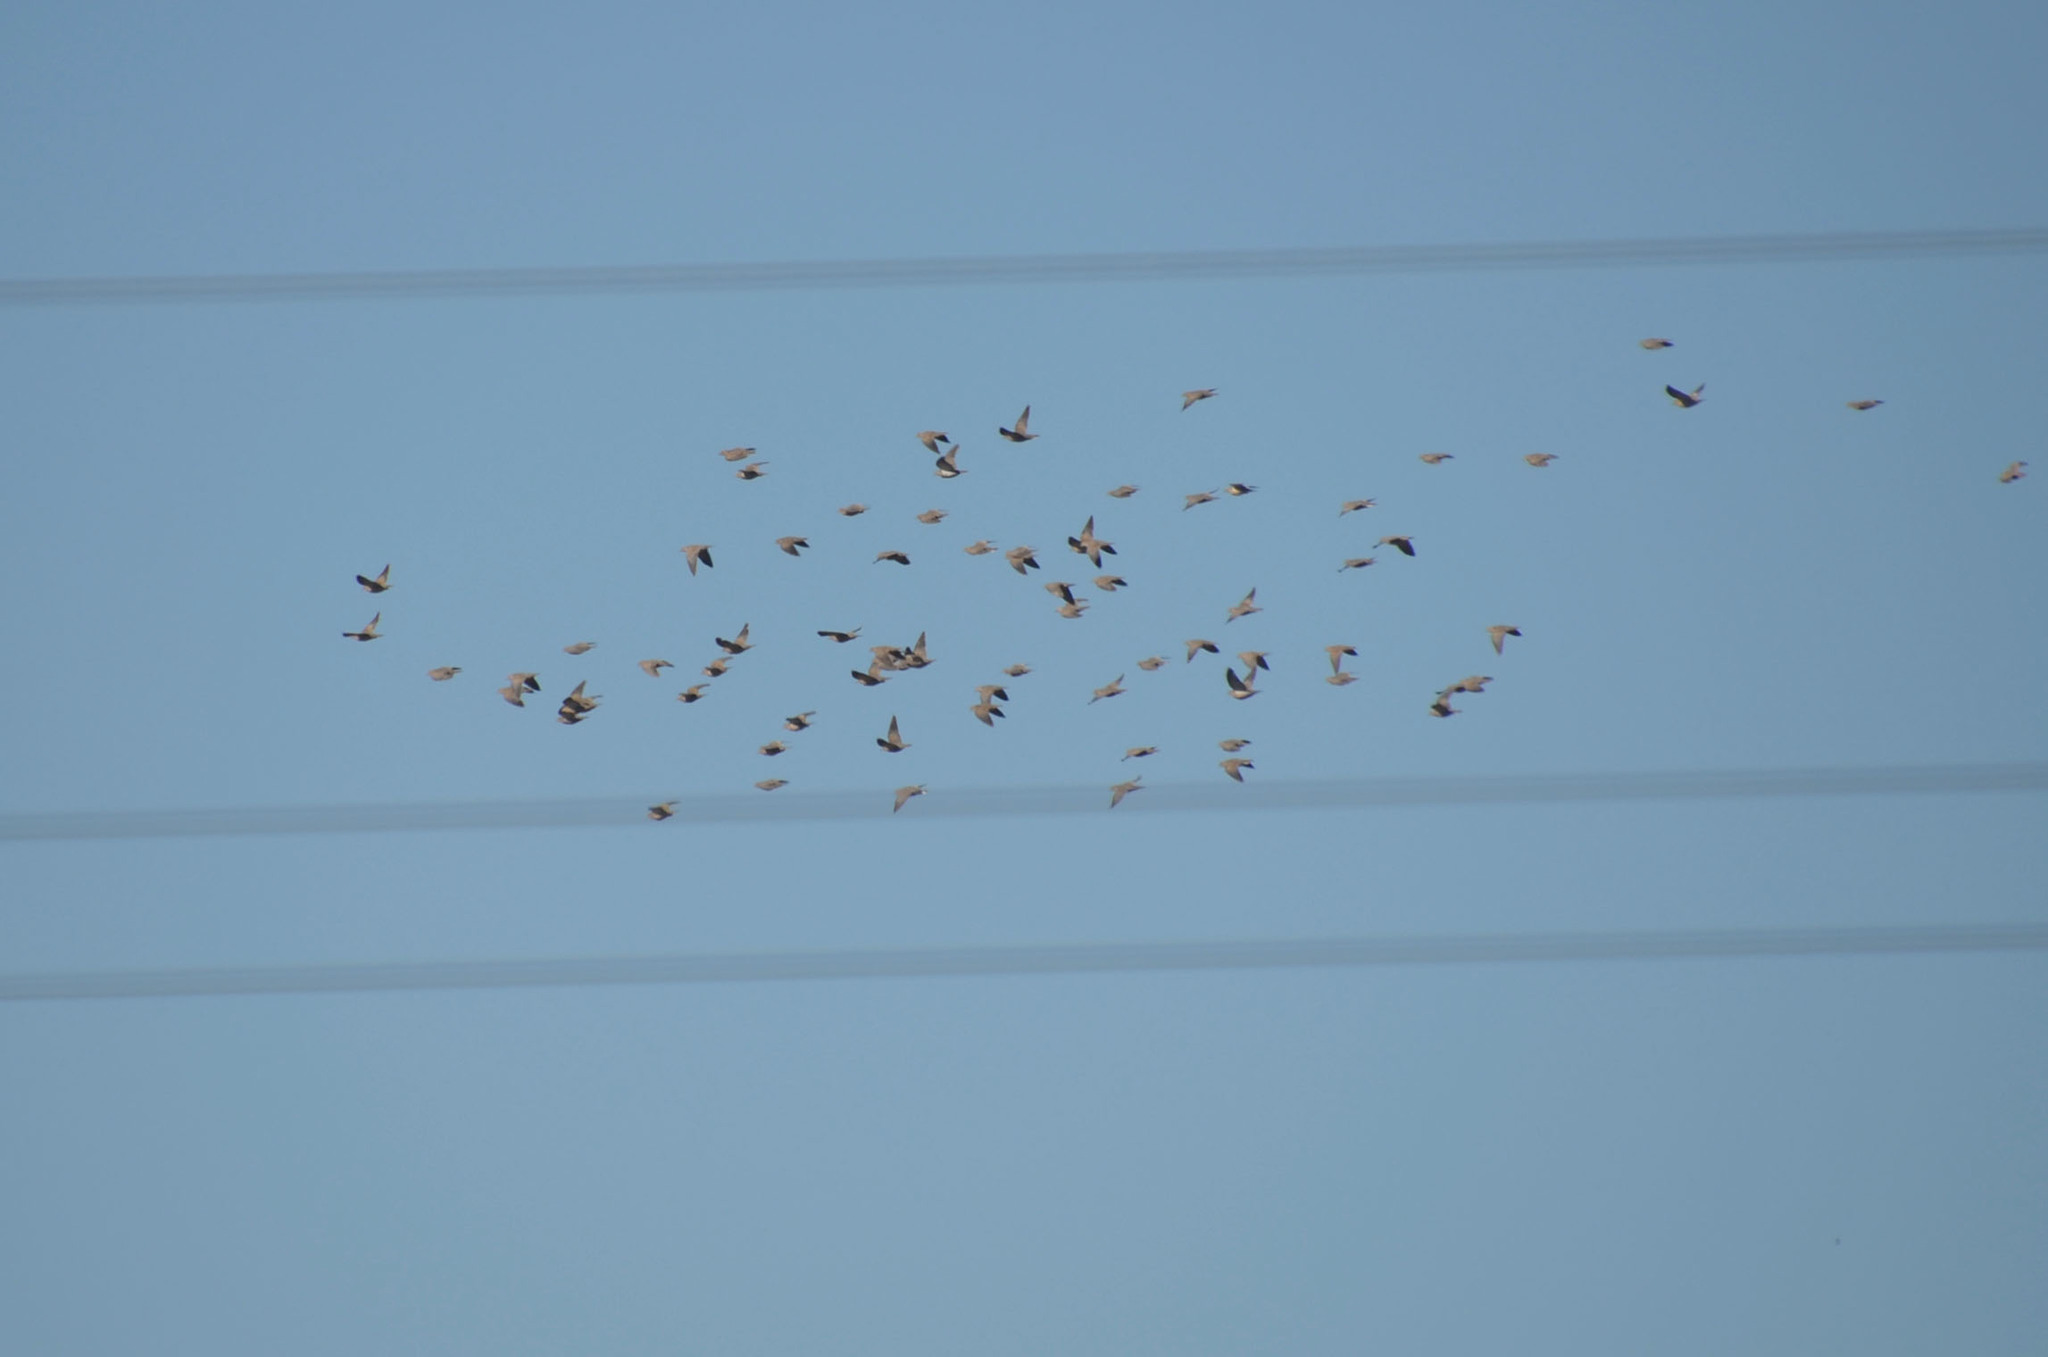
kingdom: Animalia
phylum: Chordata
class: Aves
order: Columbiformes
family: Columbidae
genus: Zenaida
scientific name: Zenaida auriculata
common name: Eared dove
